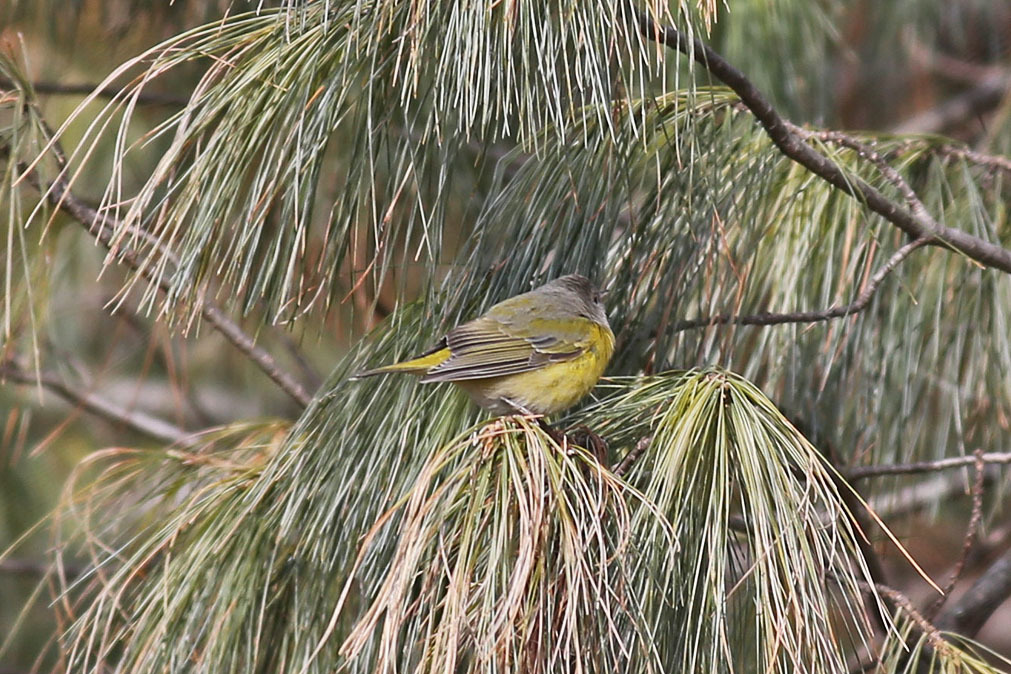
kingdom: Animalia
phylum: Chordata
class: Aves
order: Passeriformes
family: Parulidae
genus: Leiothlypis
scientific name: Leiothlypis ruficapilla
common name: Nashville warbler
